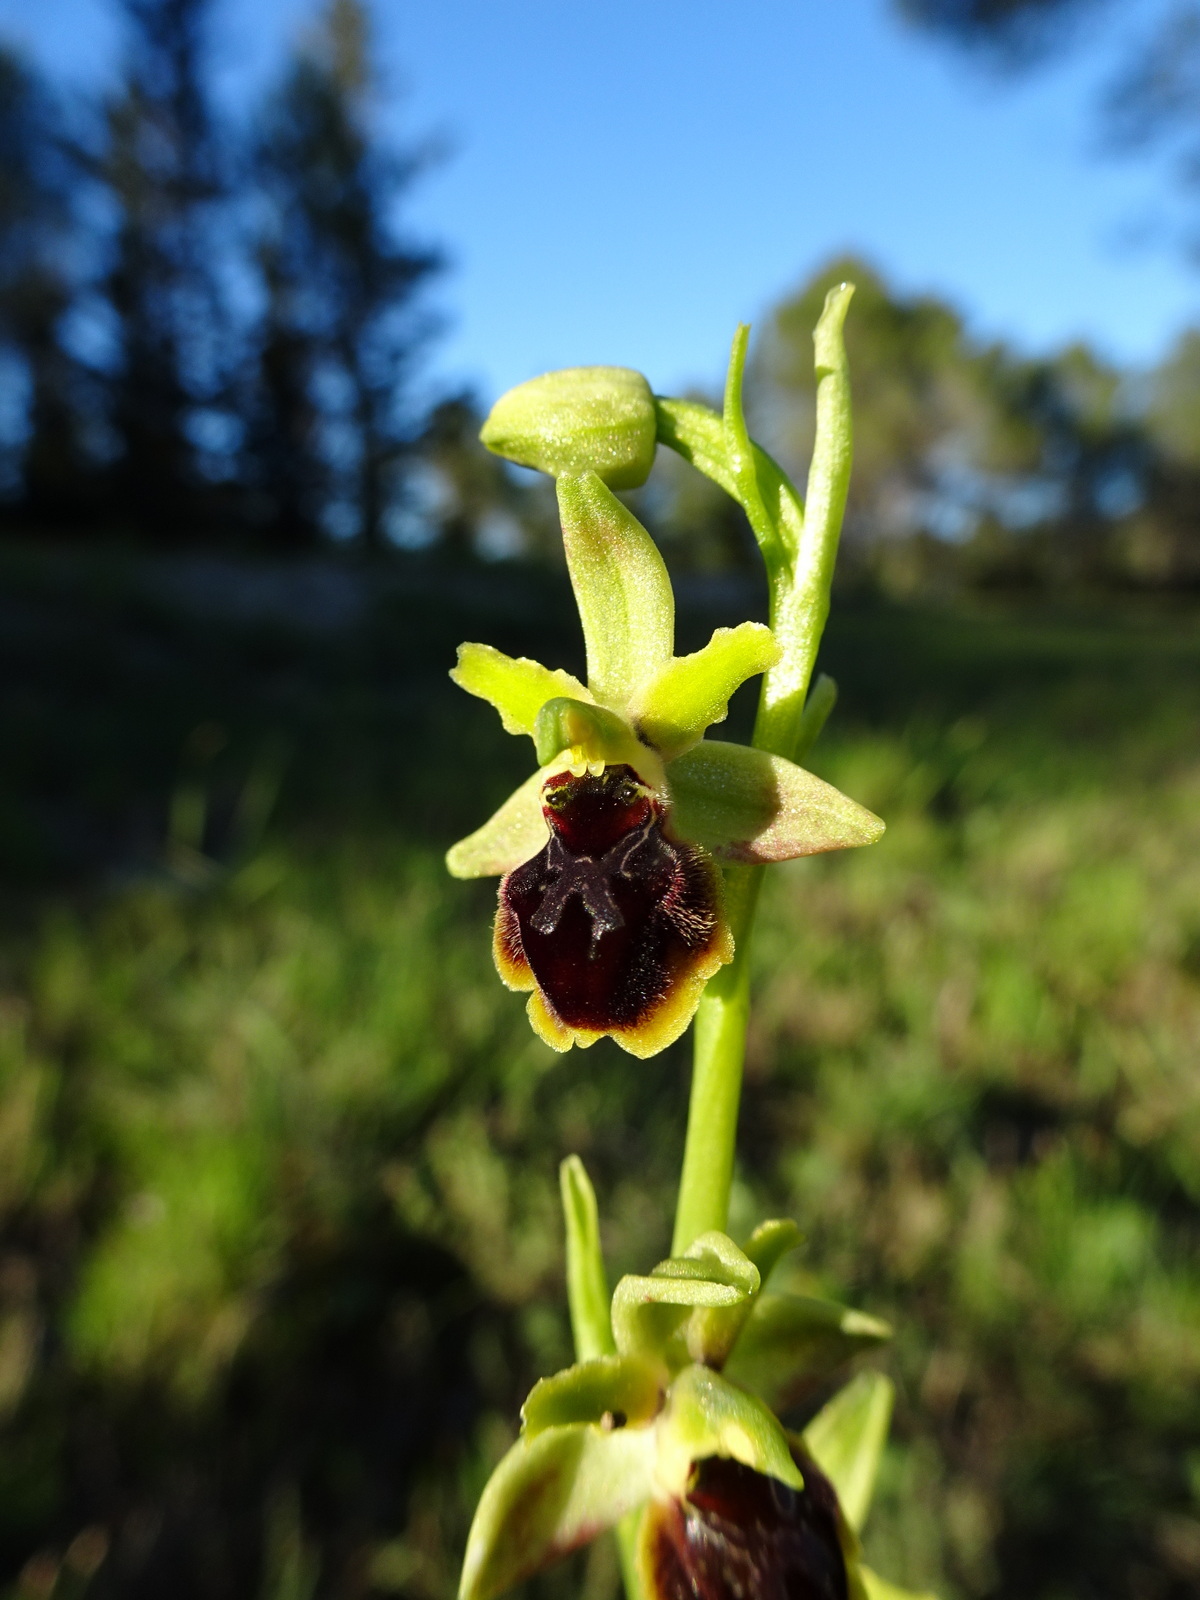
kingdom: Plantae
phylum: Tracheophyta
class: Liliopsida
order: Asparagales
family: Orchidaceae
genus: Ophrys
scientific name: Ophrys sphegodes
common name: Early spider-orchid
